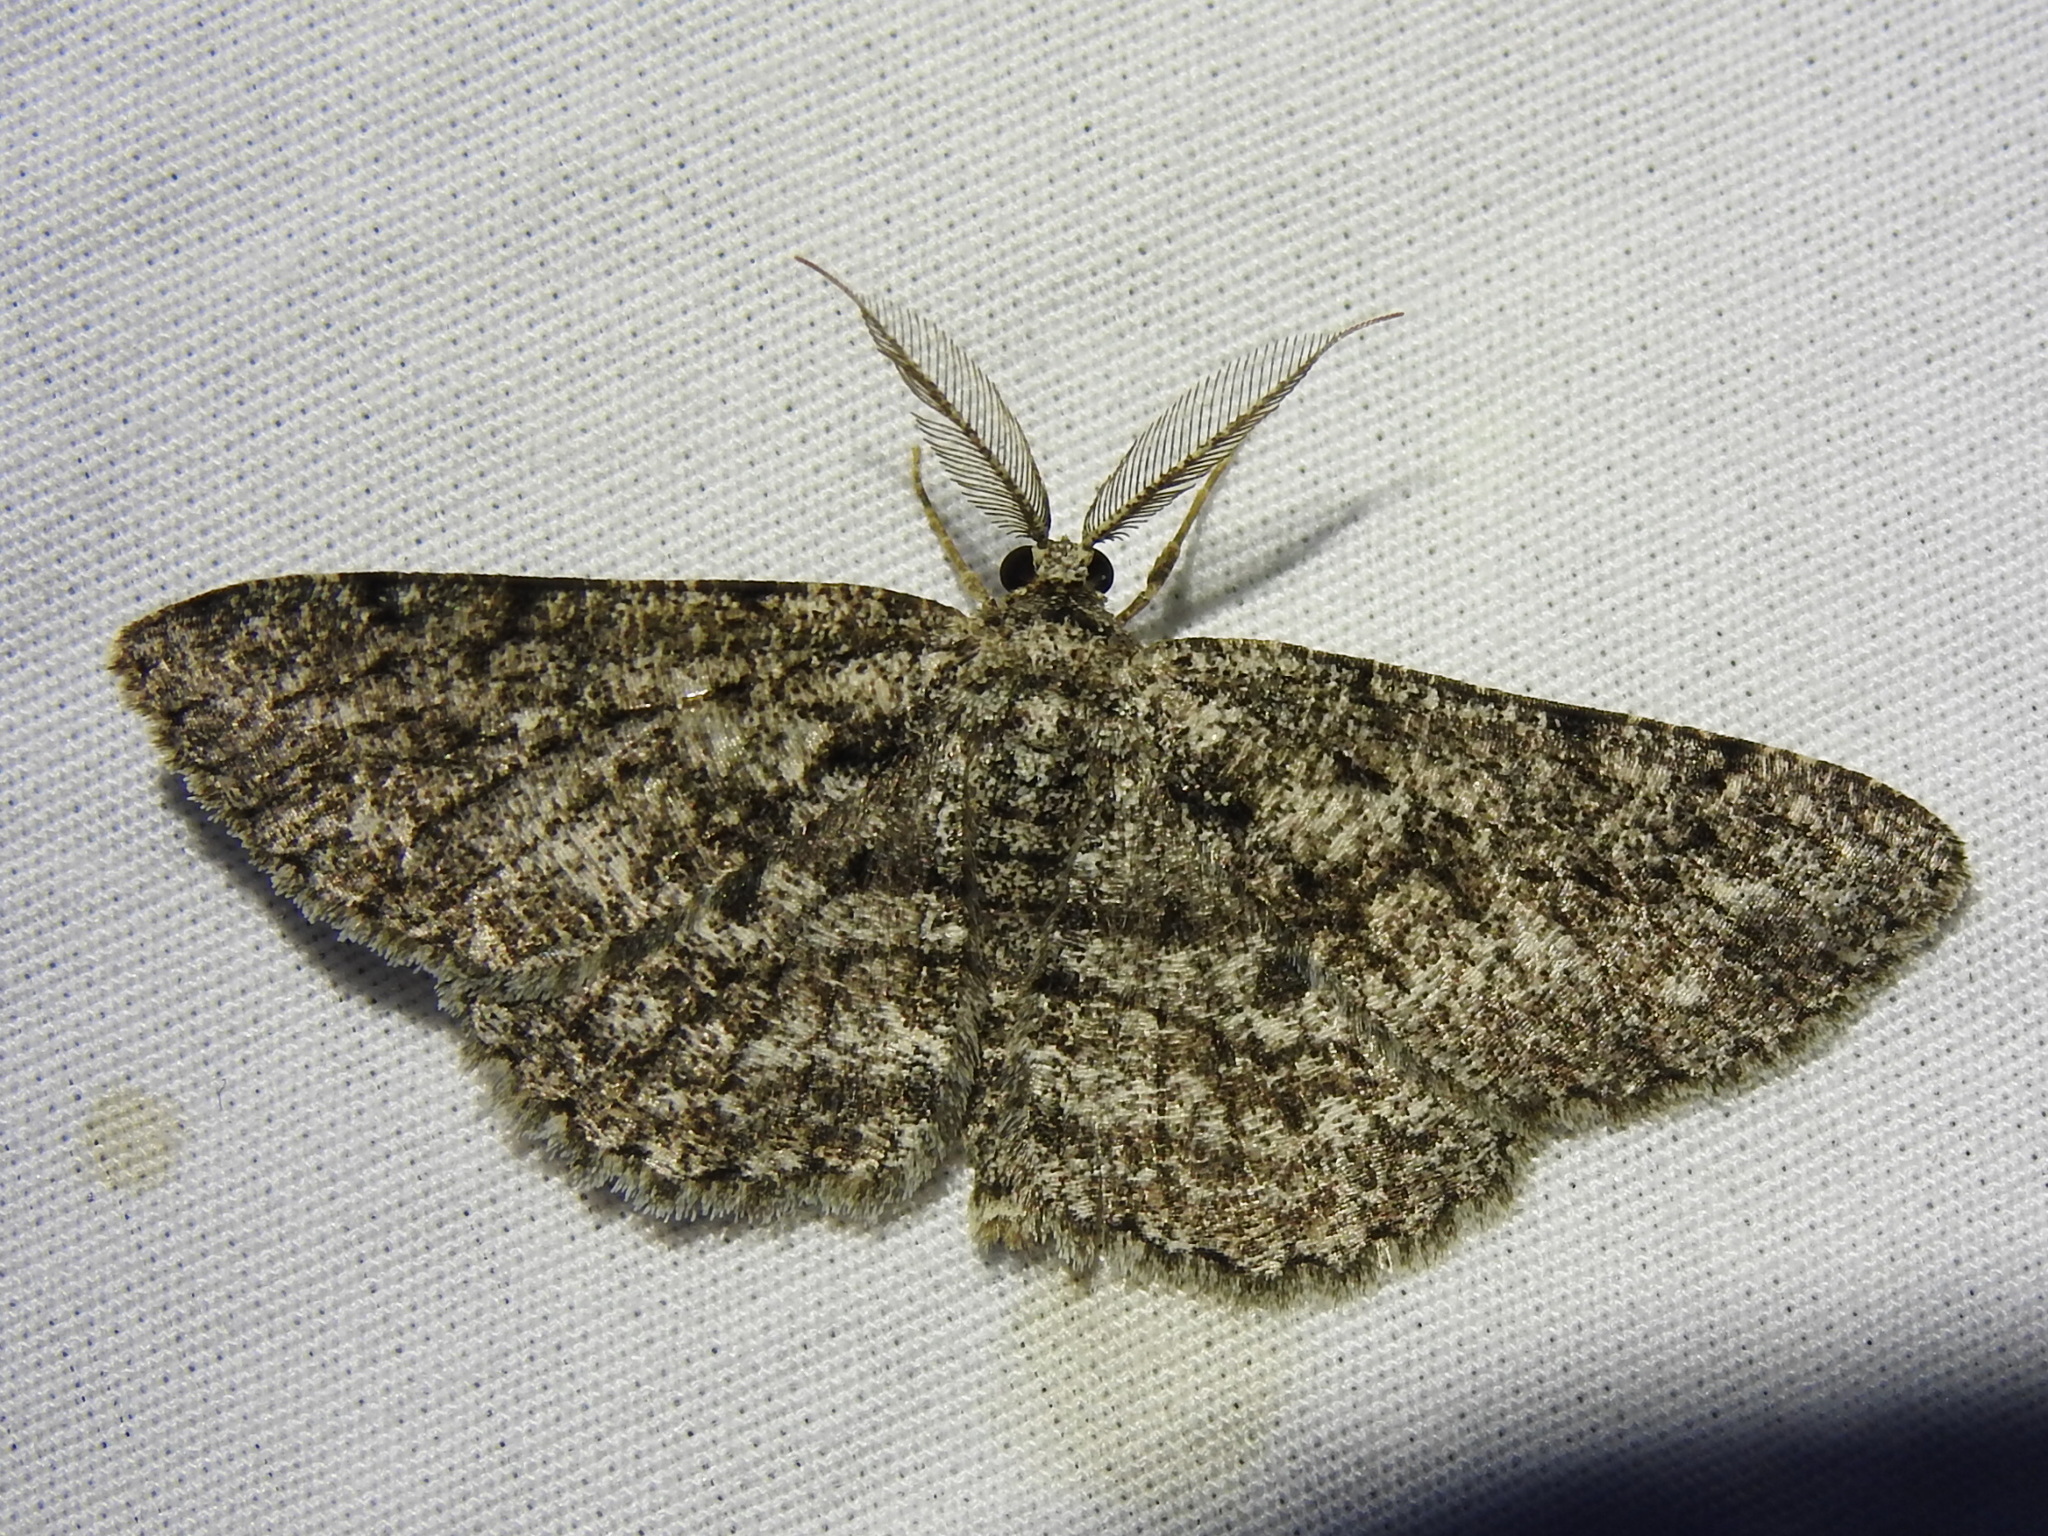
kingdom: Animalia
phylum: Arthropoda
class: Insecta
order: Lepidoptera
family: Geometridae
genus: Hypomecis
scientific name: Hypomecis umbrosaria
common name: Umber moth
